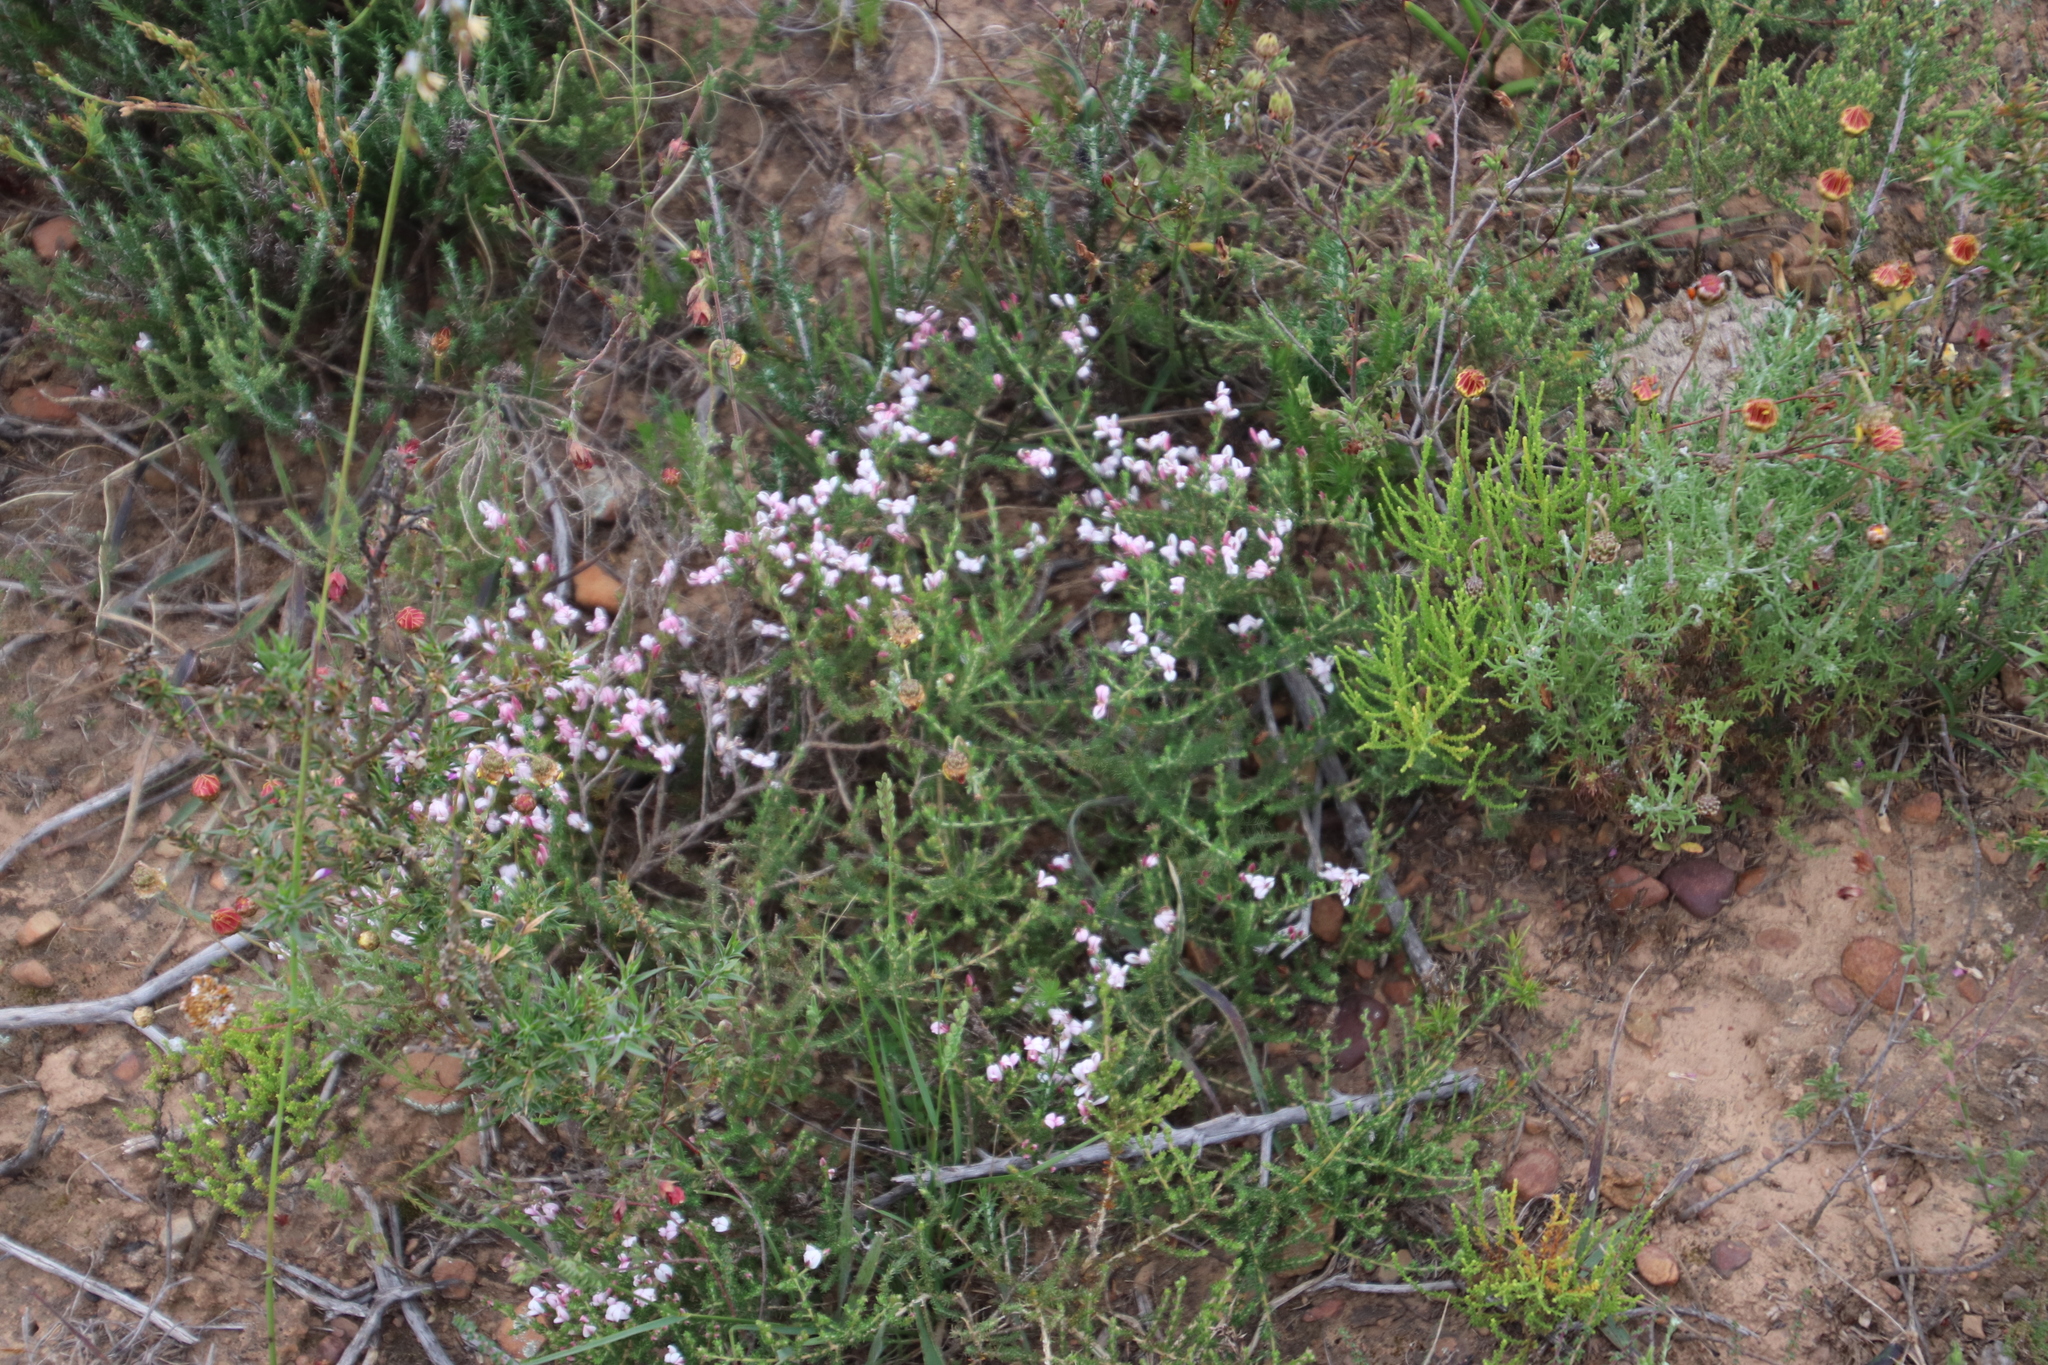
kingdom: Plantae
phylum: Tracheophyta
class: Magnoliopsida
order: Fabales
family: Fabaceae
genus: Aspalathus
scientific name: Aspalathus submissa
